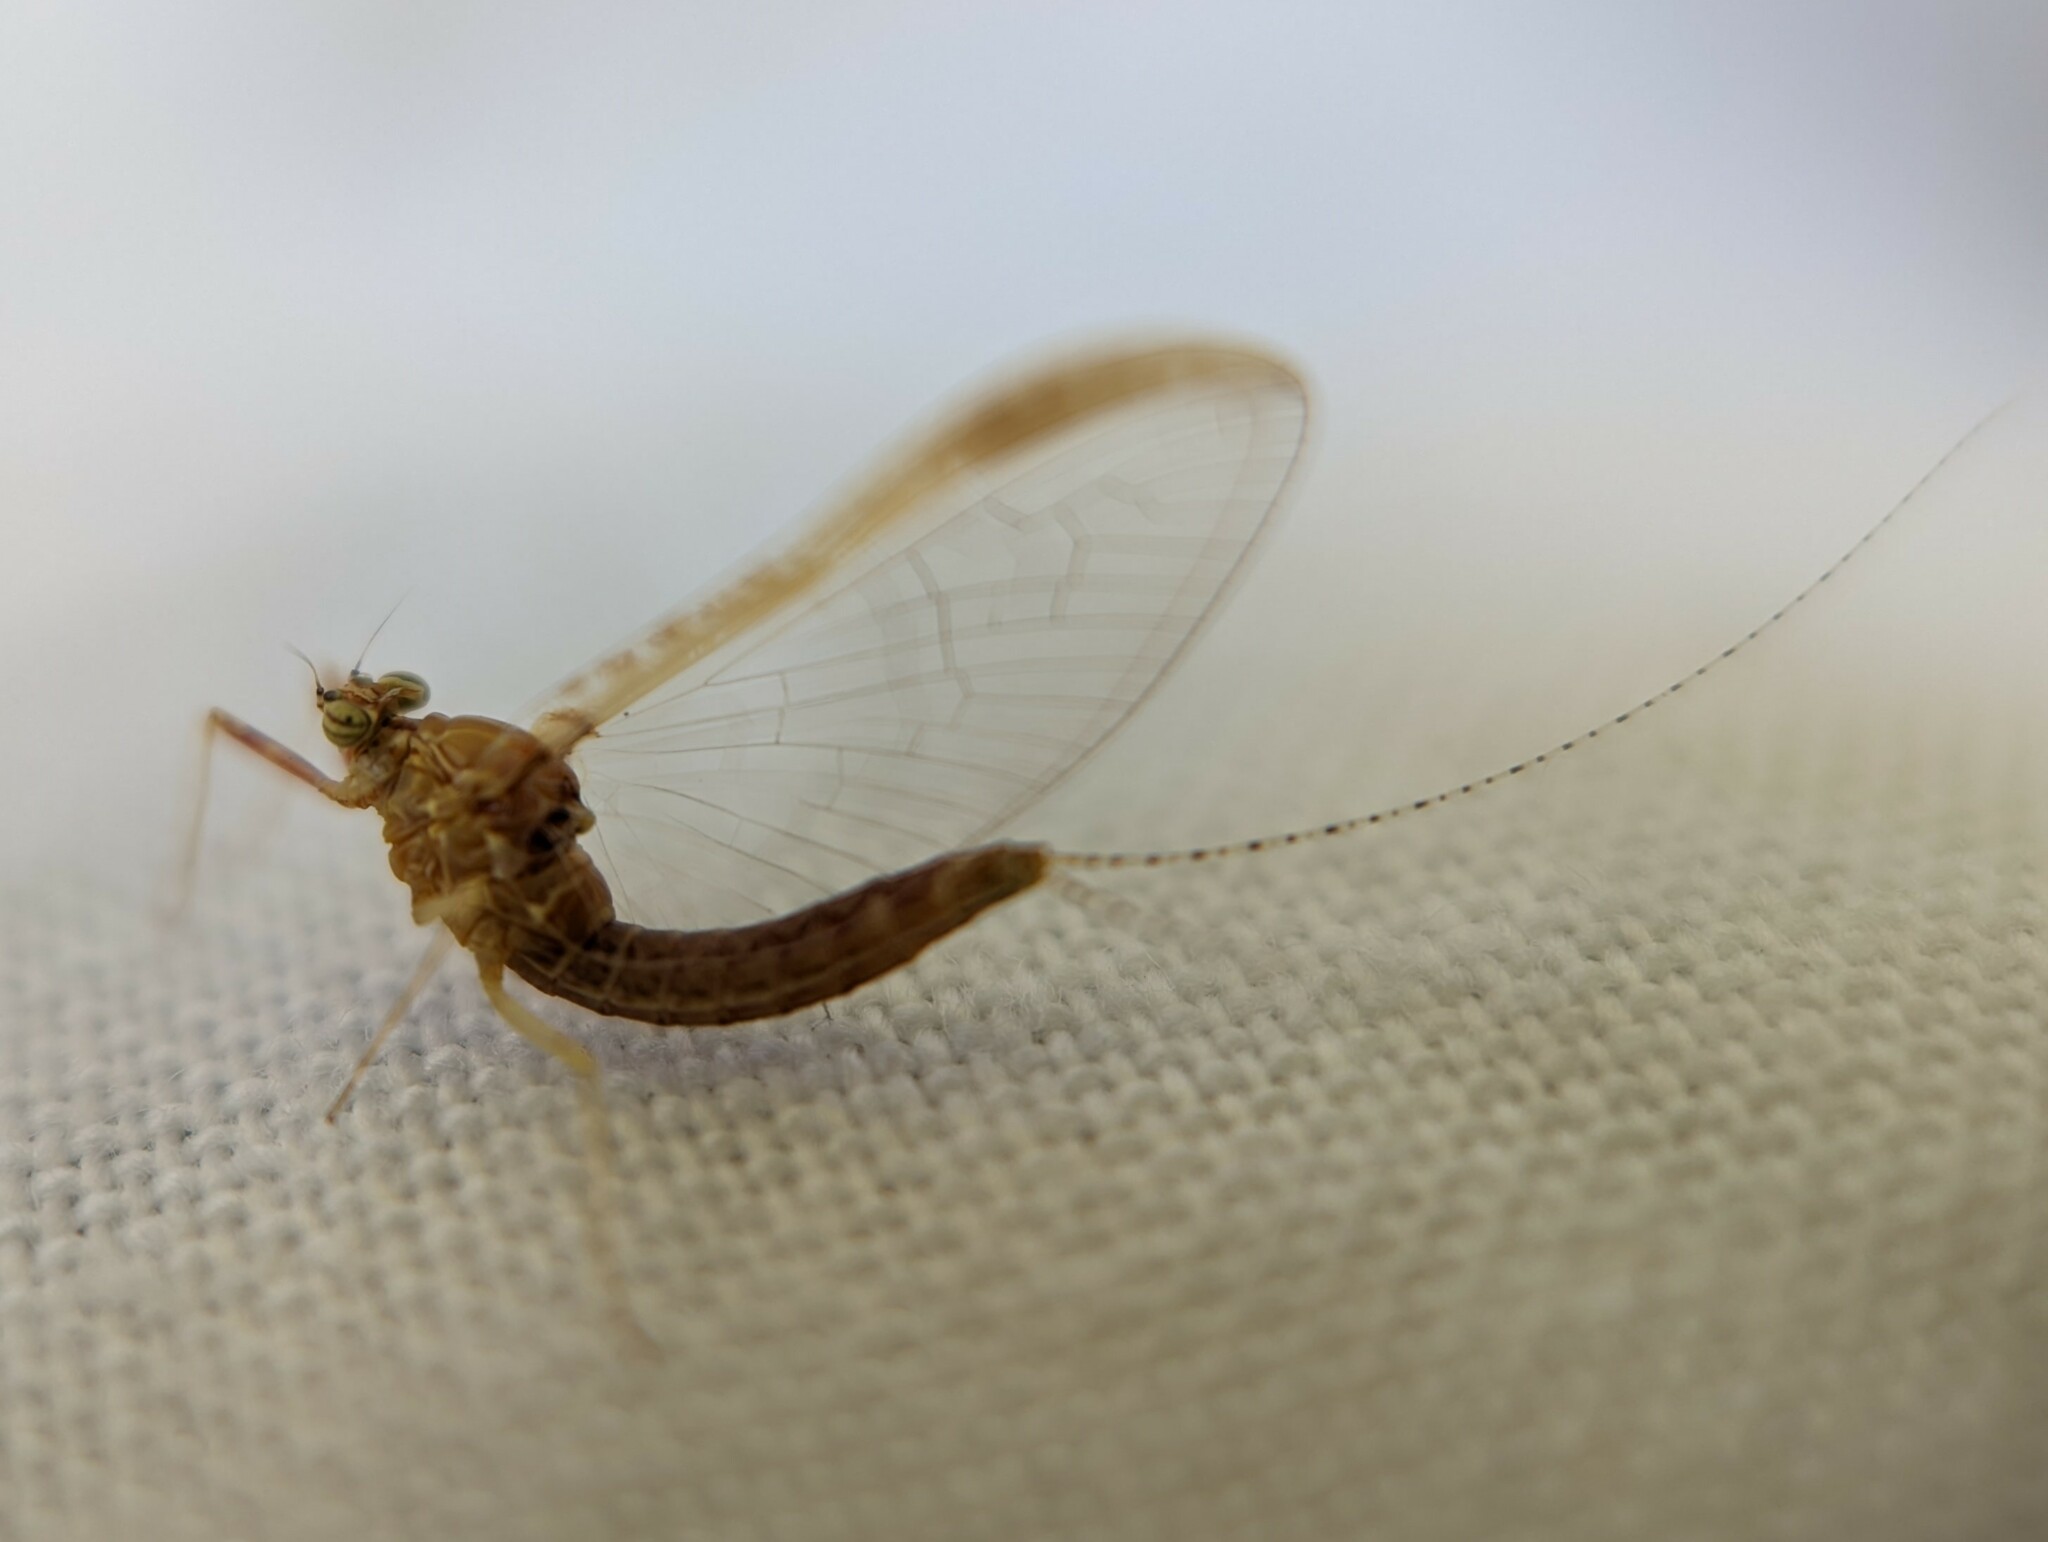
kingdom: Animalia
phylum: Arthropoda
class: Insecta
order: Ephemeroptera
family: Baetidae
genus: Cloeon
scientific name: Cloeon dipterum
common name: Pond olive
